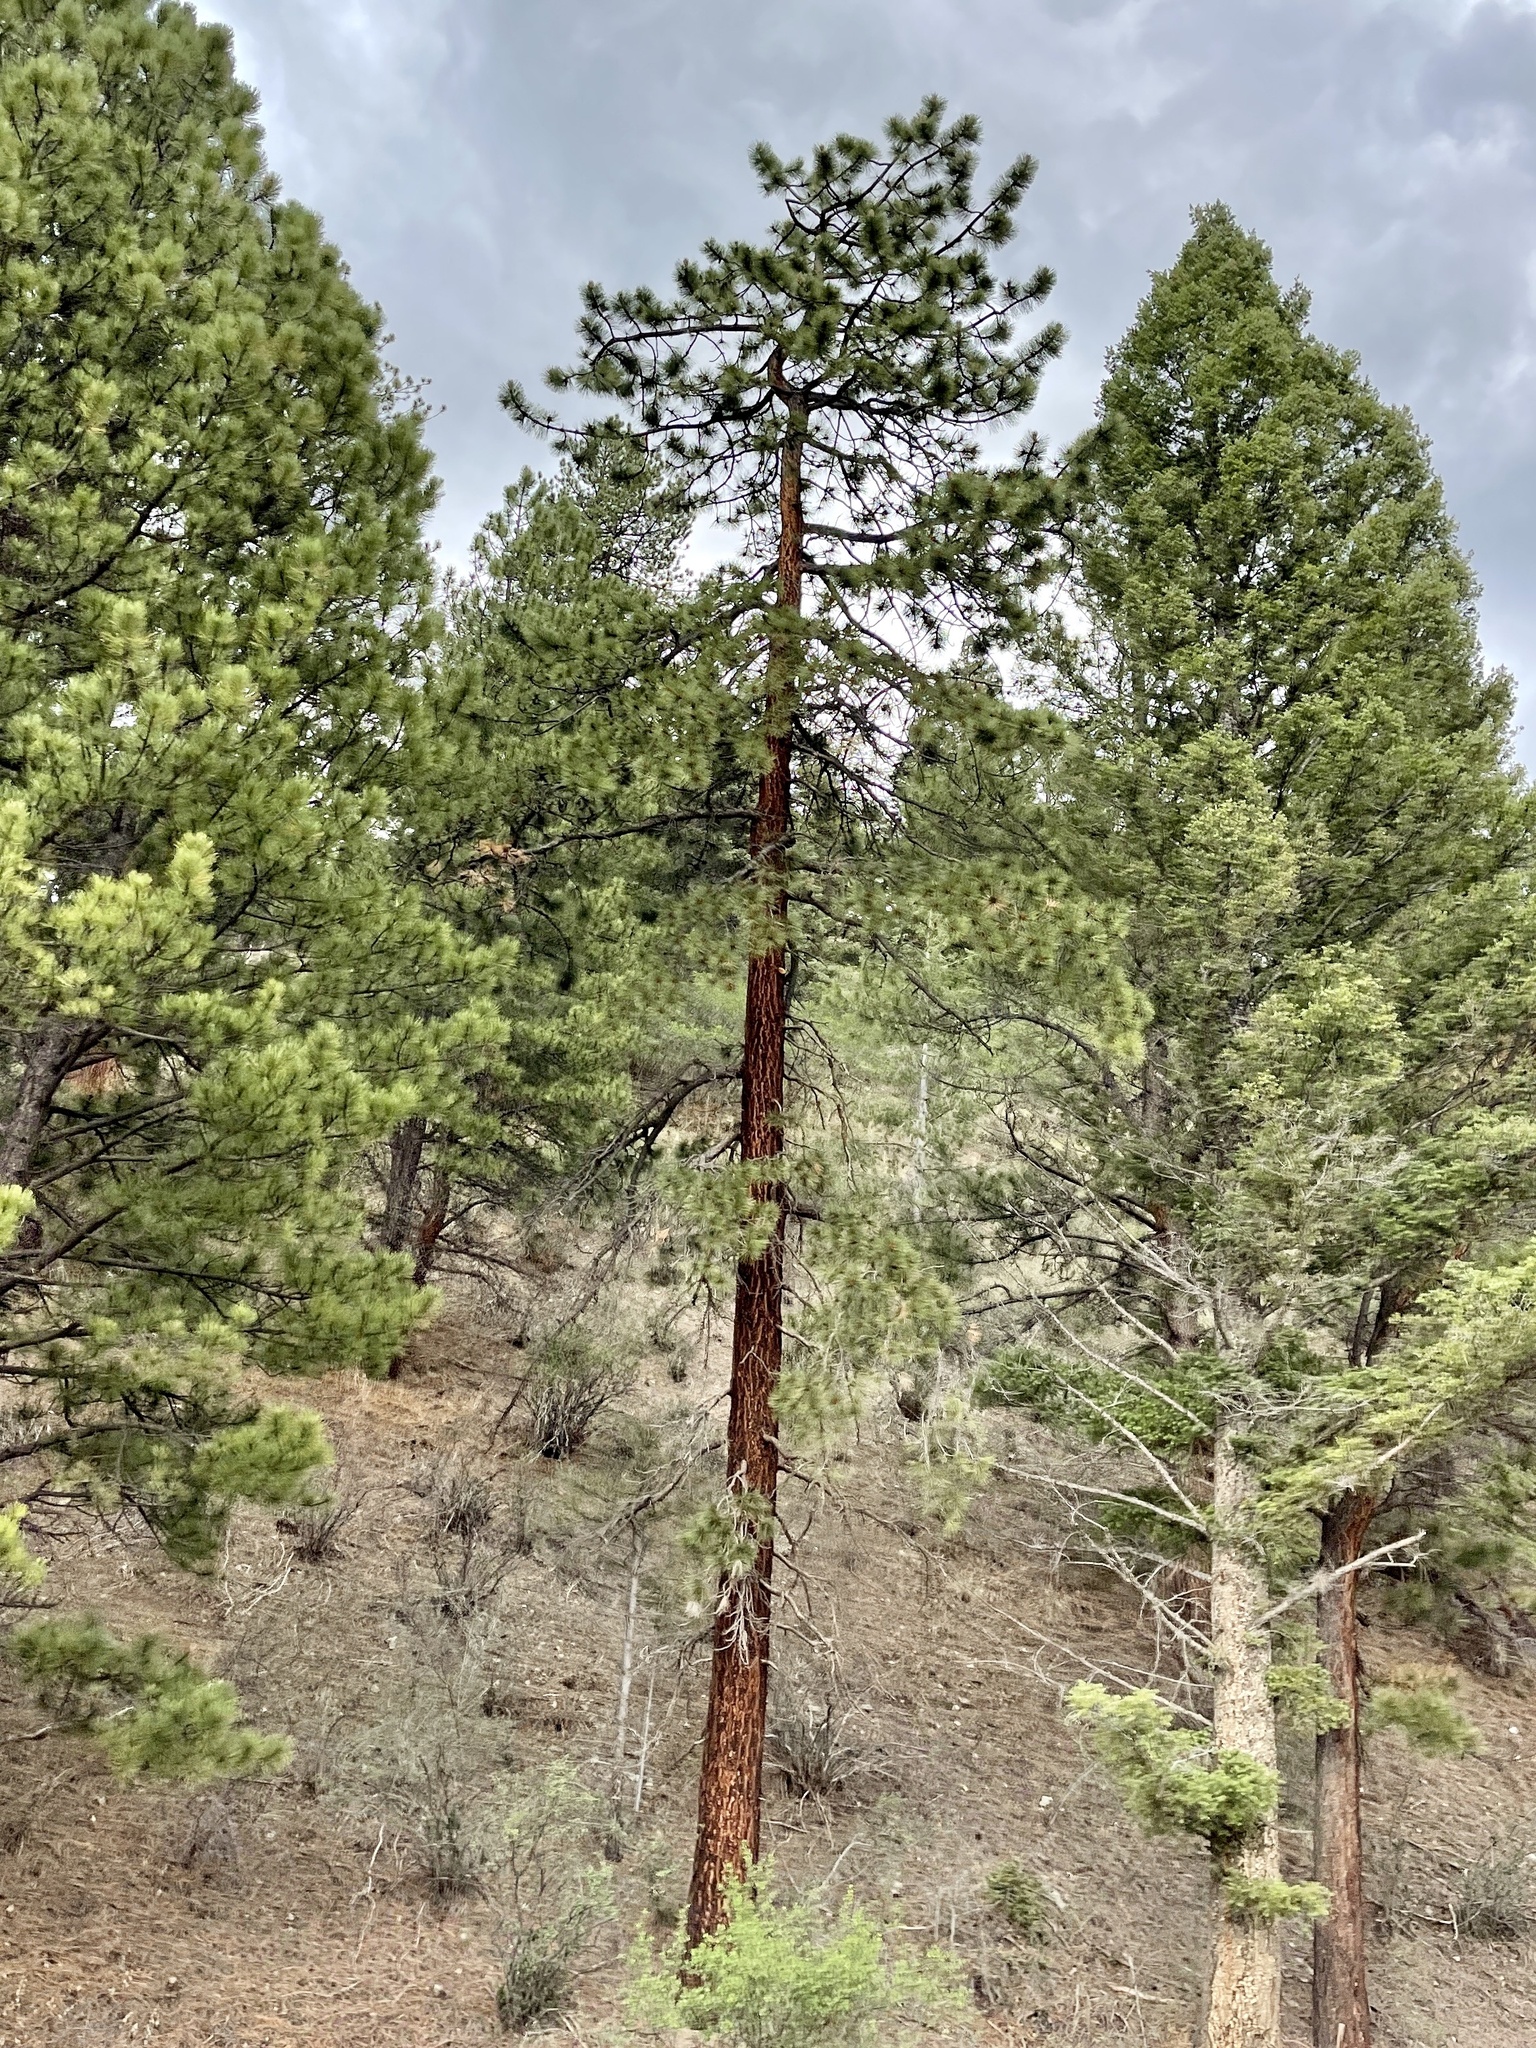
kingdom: Plantae
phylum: Tracheophyta
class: Pinopsida
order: Pinales
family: Pinaceae
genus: Pinus
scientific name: Pinus ponderosa
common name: Western yellow-pine
